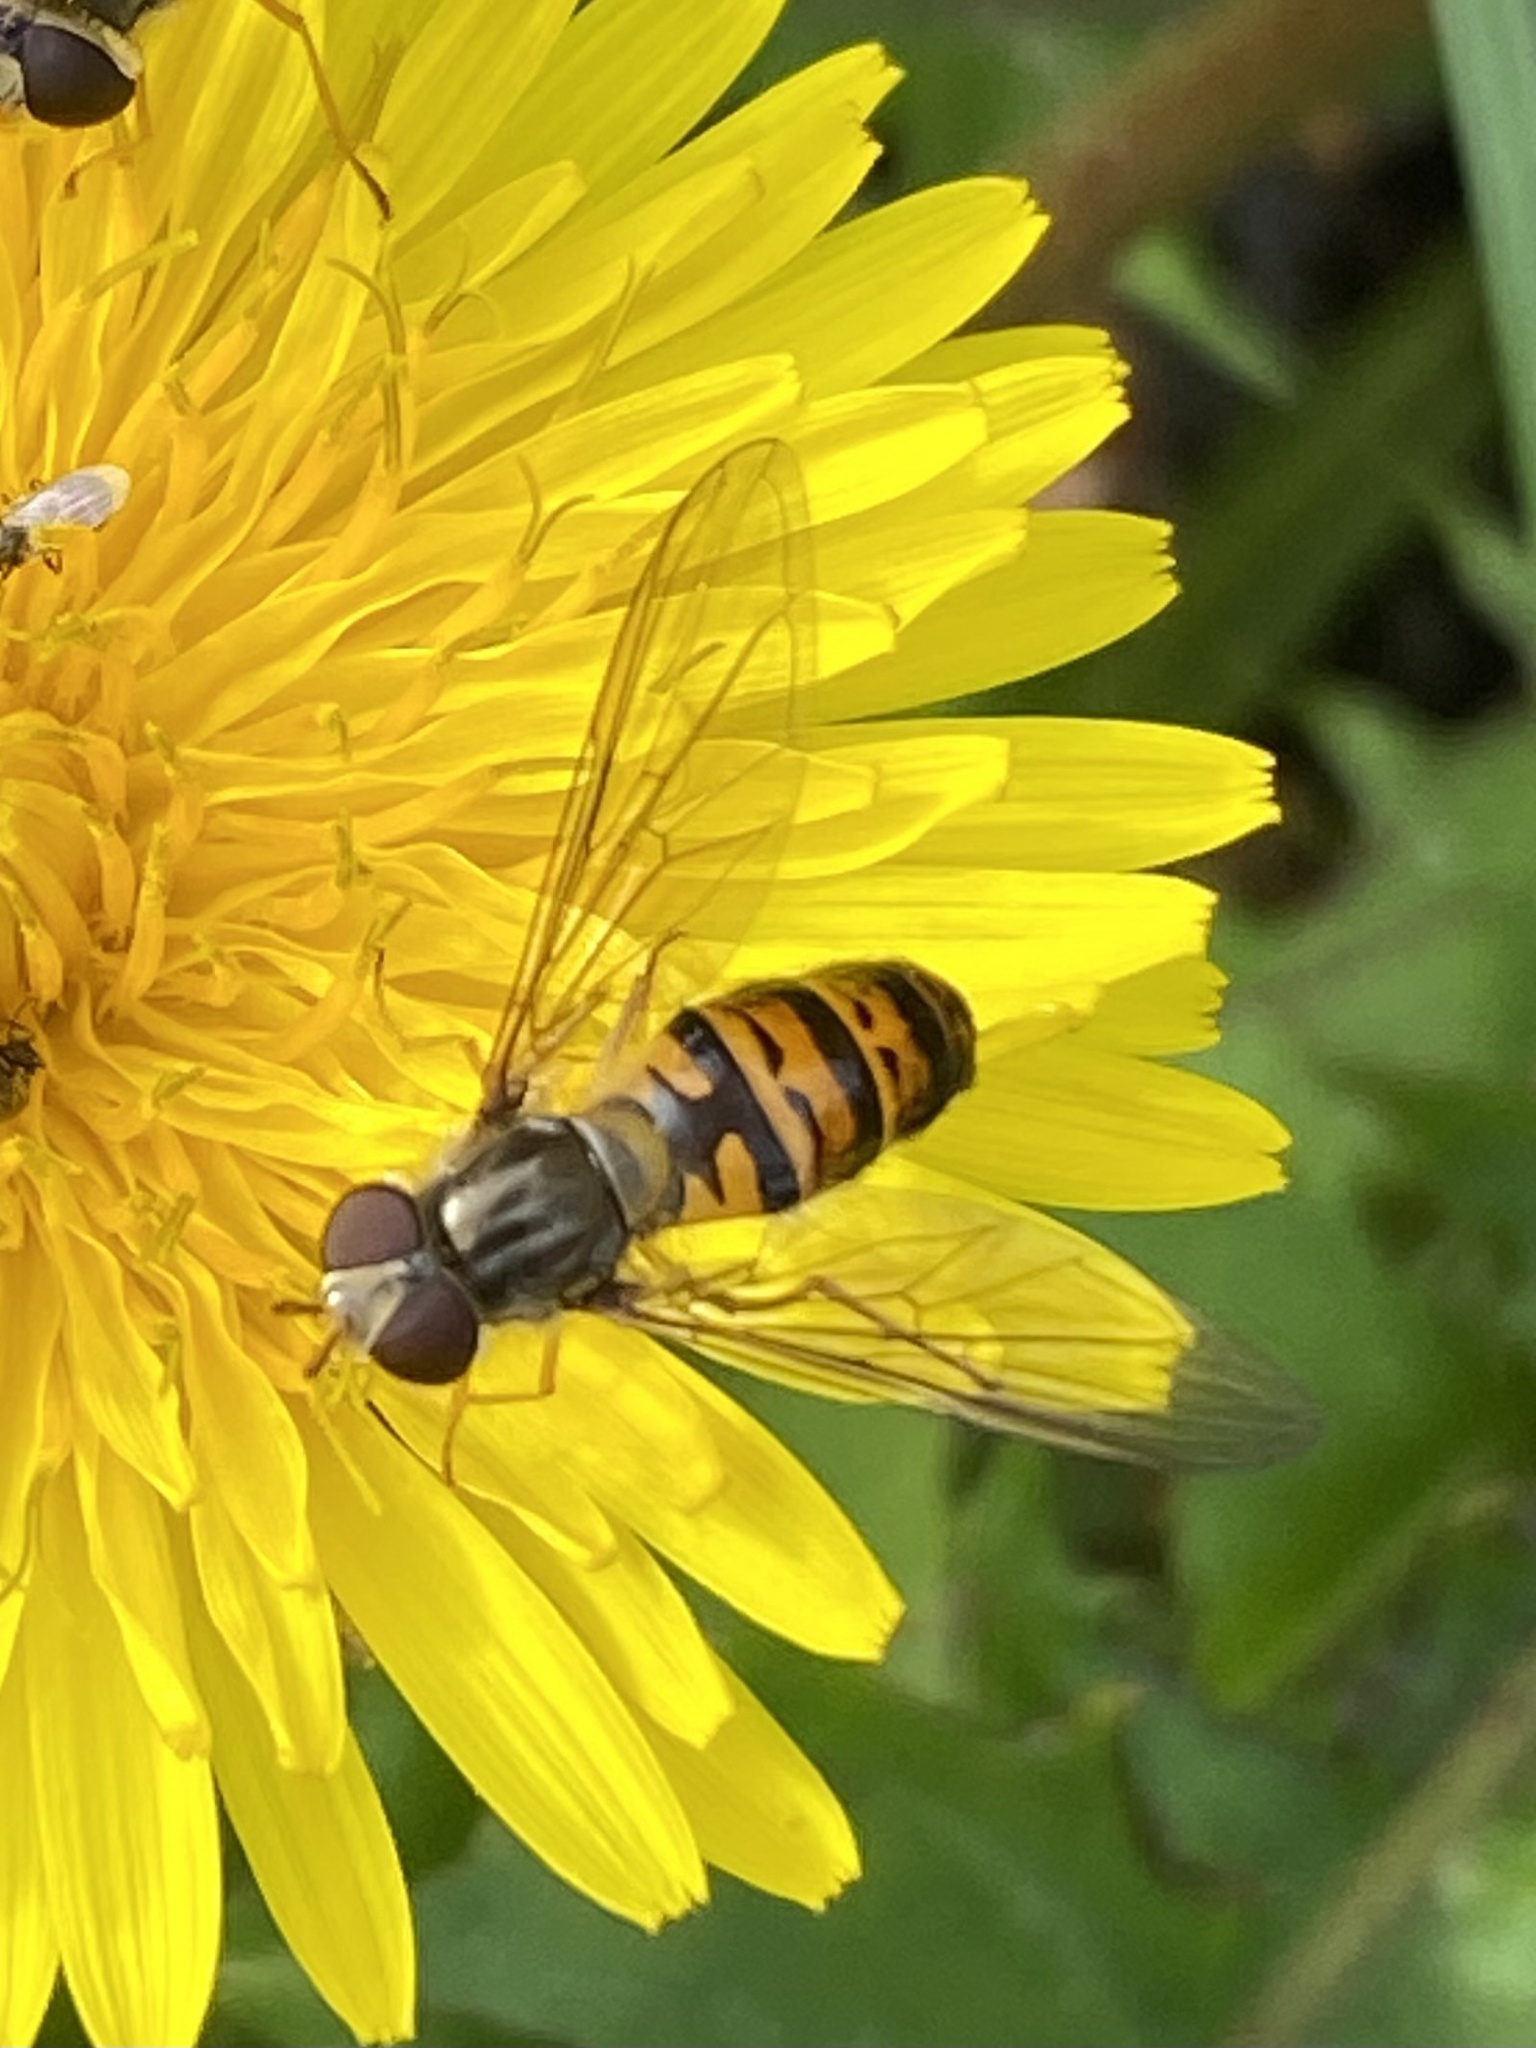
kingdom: Animalia
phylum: Arthropoda
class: Insecta
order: Diptera
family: Syrphidae
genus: Episyrphus
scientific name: Episyrphus balteatus
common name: Marmalade hoverfly
